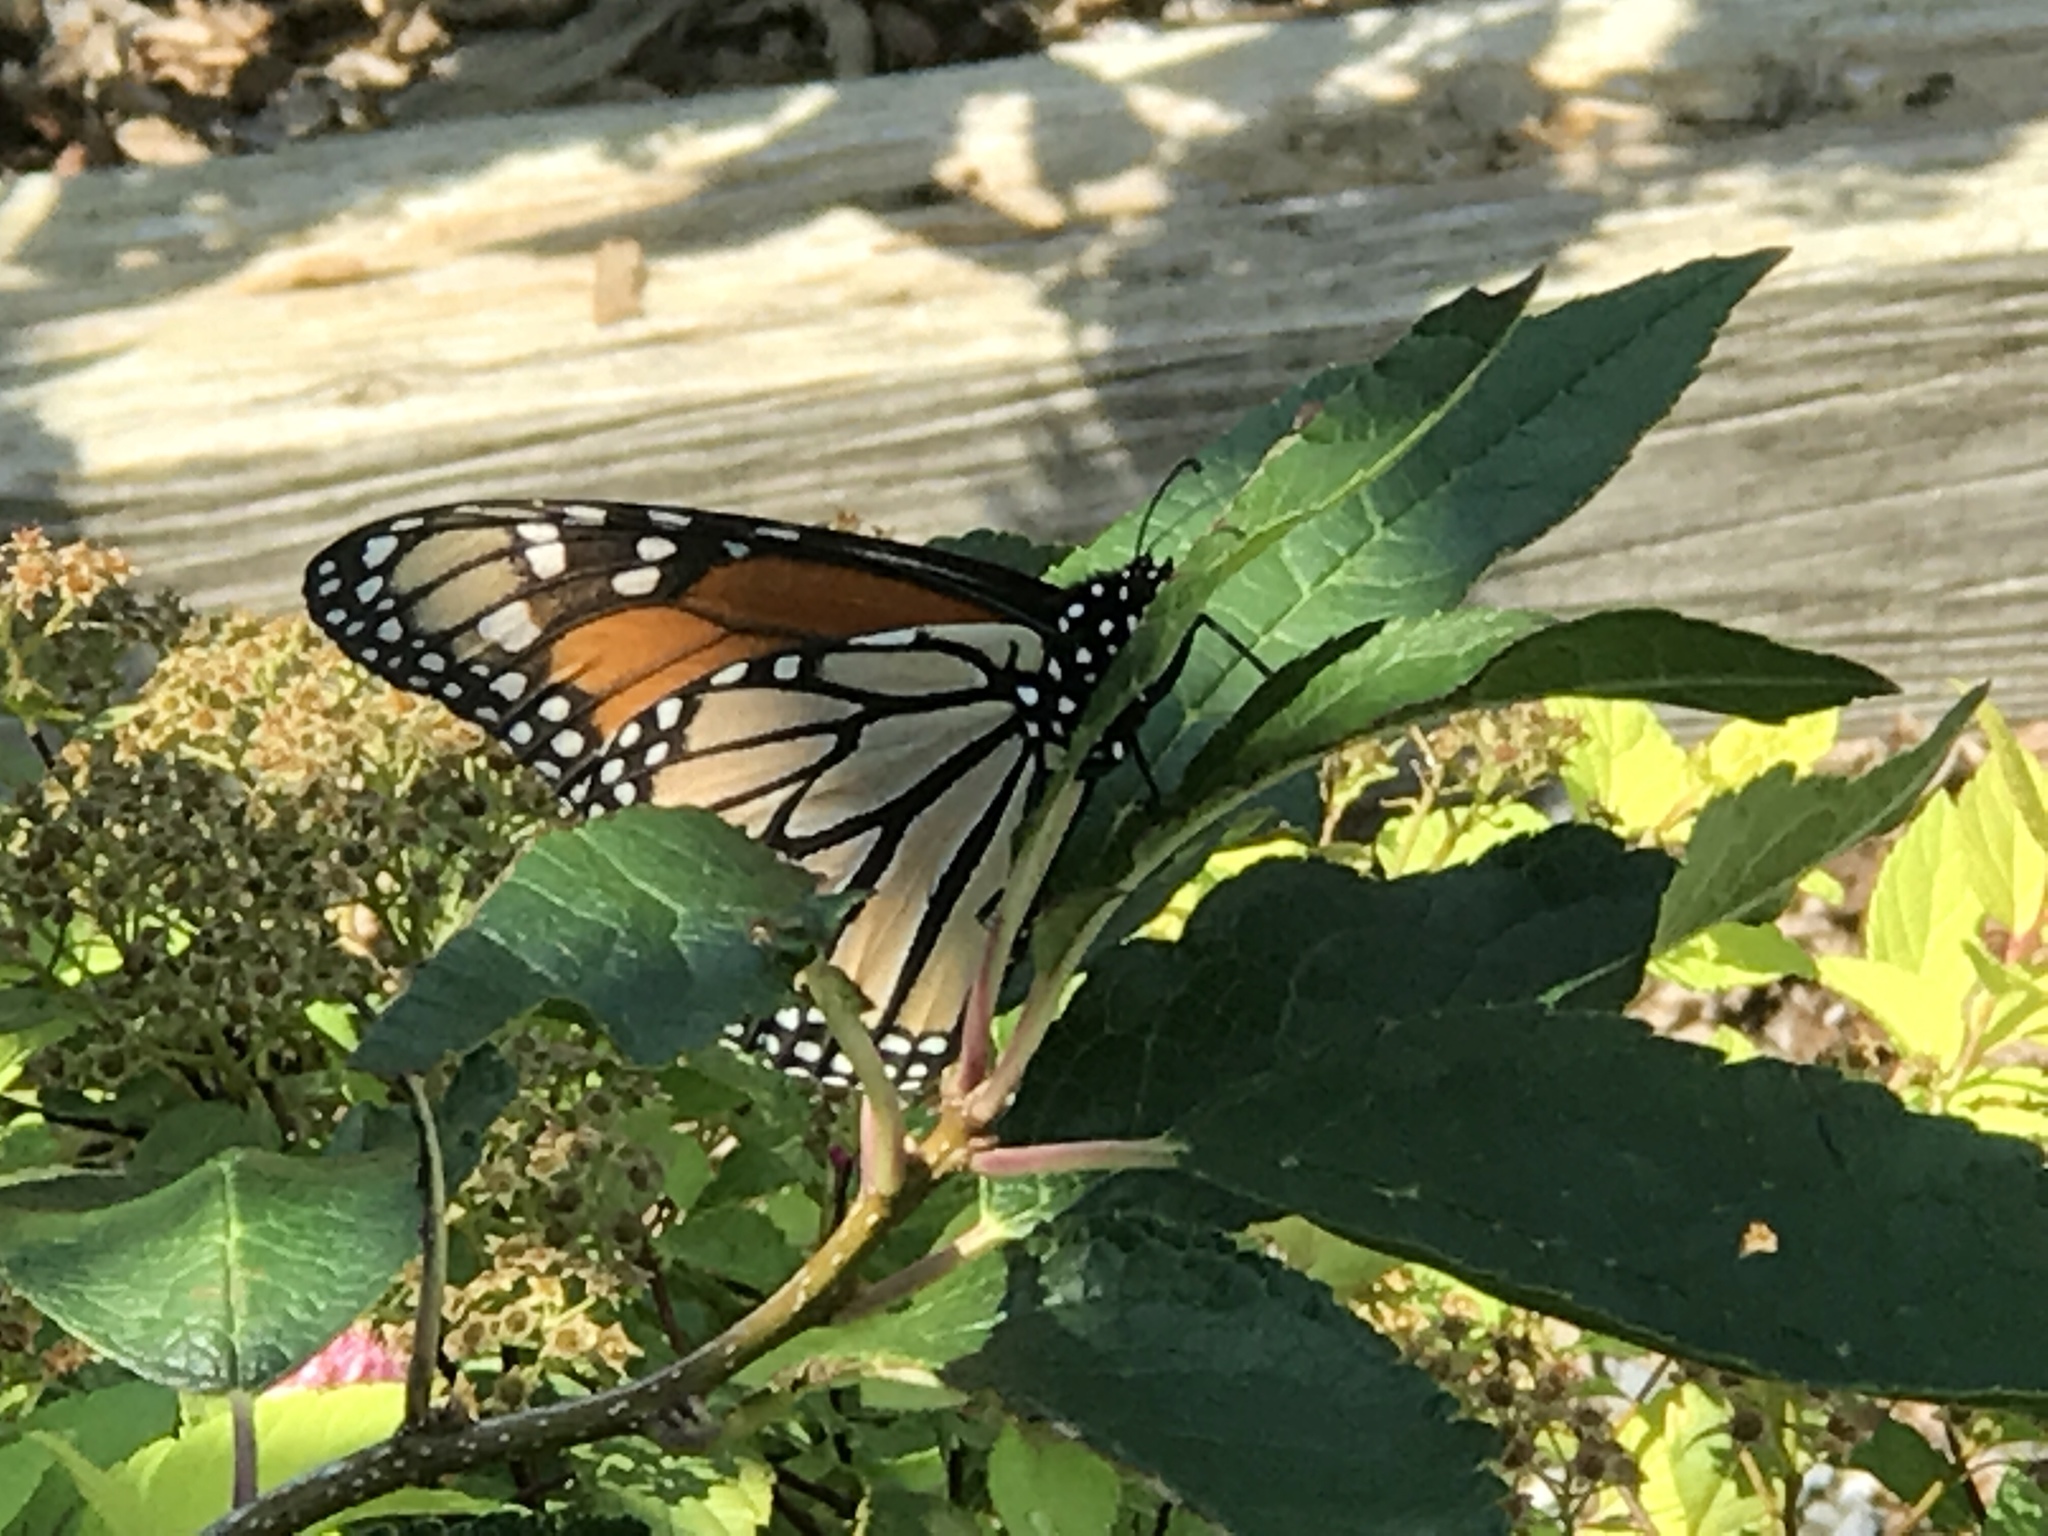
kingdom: Animalia
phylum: Arthropoda
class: Insecta
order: Lepidoptera
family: Nymphalidae
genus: Danaus
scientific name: Danaus plexippus
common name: Monarch
